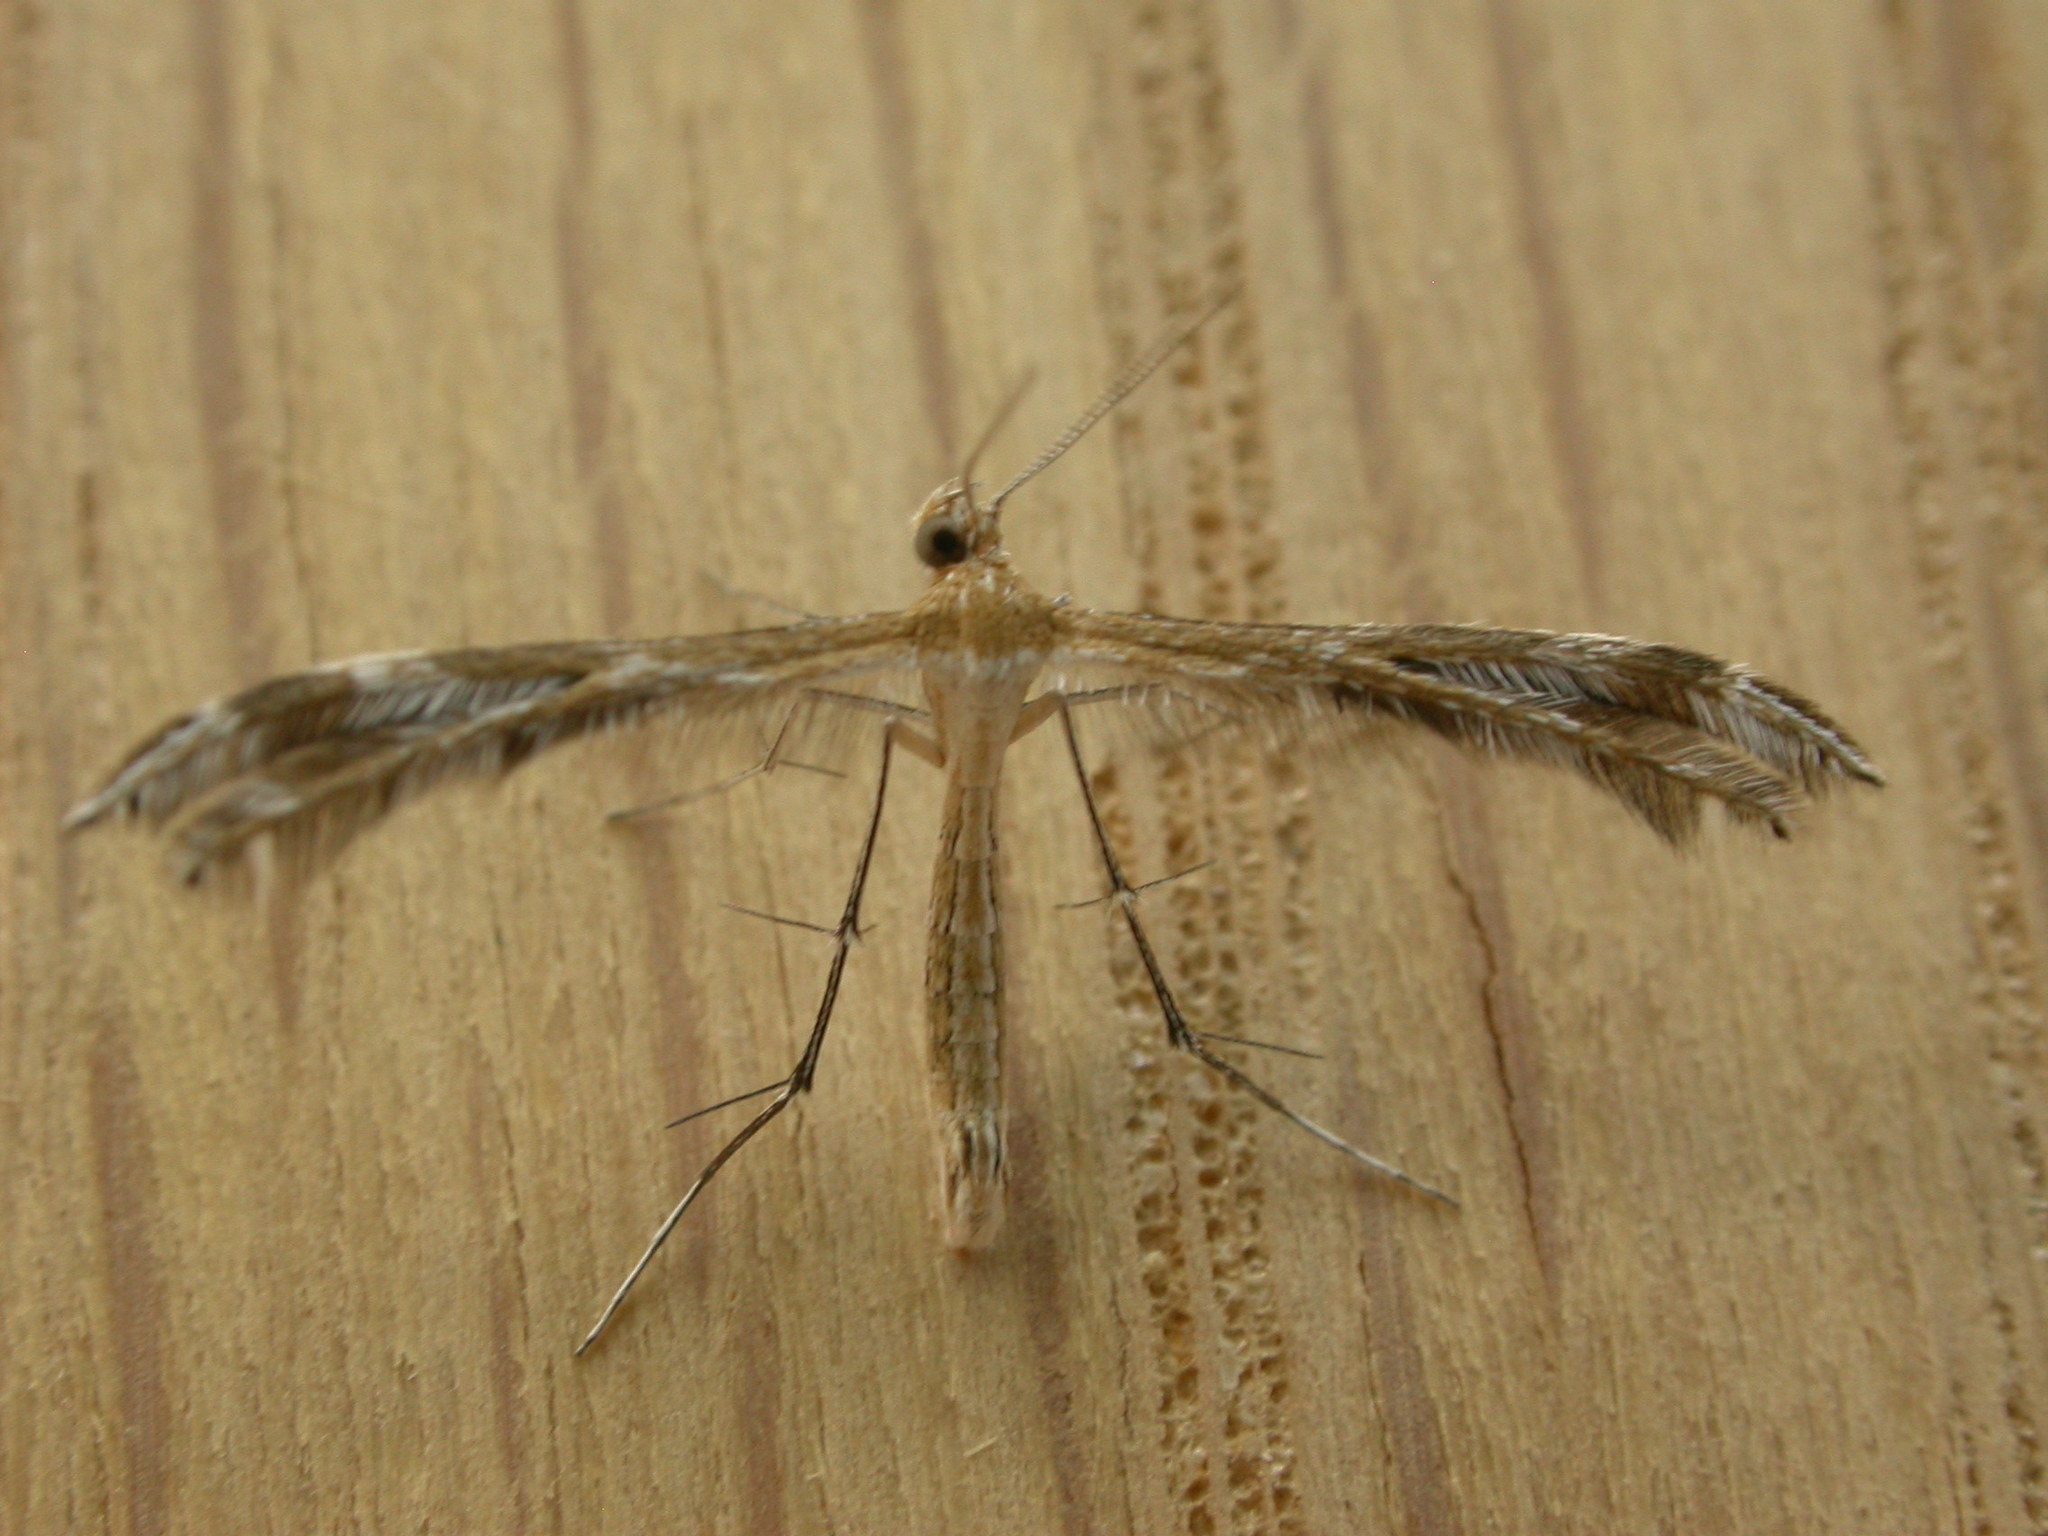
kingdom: Animalia
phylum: Arthropoda
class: Insecta
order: Lepidoptera
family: Pterophoridae
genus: Stangeia
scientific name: Stangeia xerodes
